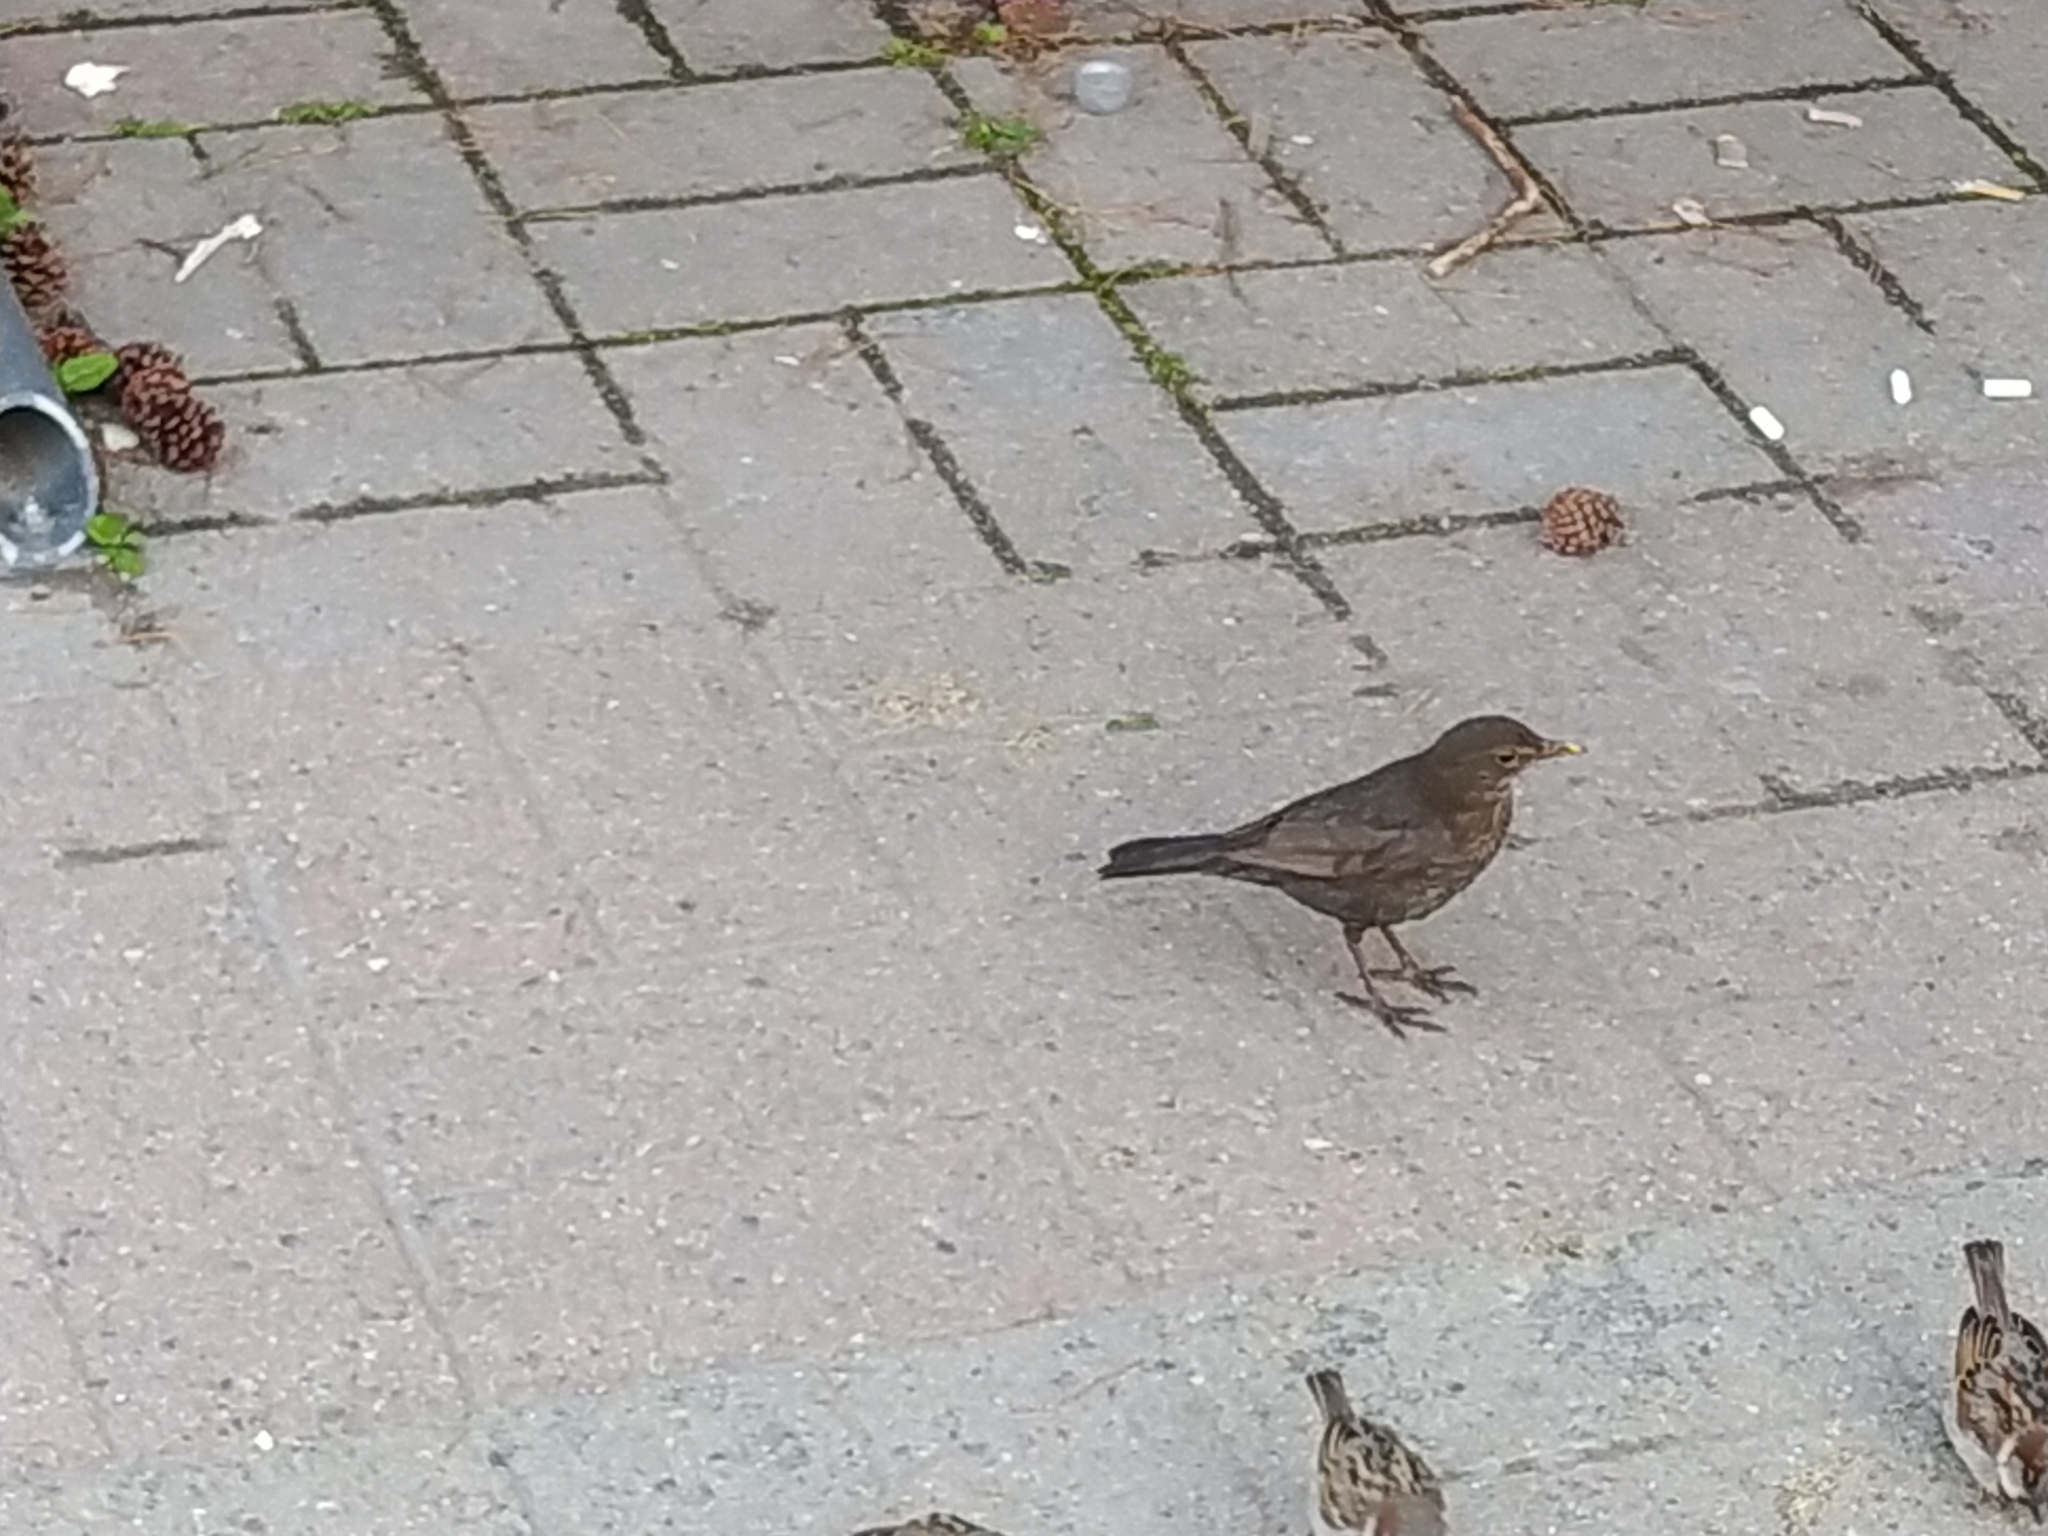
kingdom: Animalia
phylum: Chordata
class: Aves
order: Passeriformes
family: Turdidae
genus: Turdus
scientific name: Turdus merula
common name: Common blackbird
